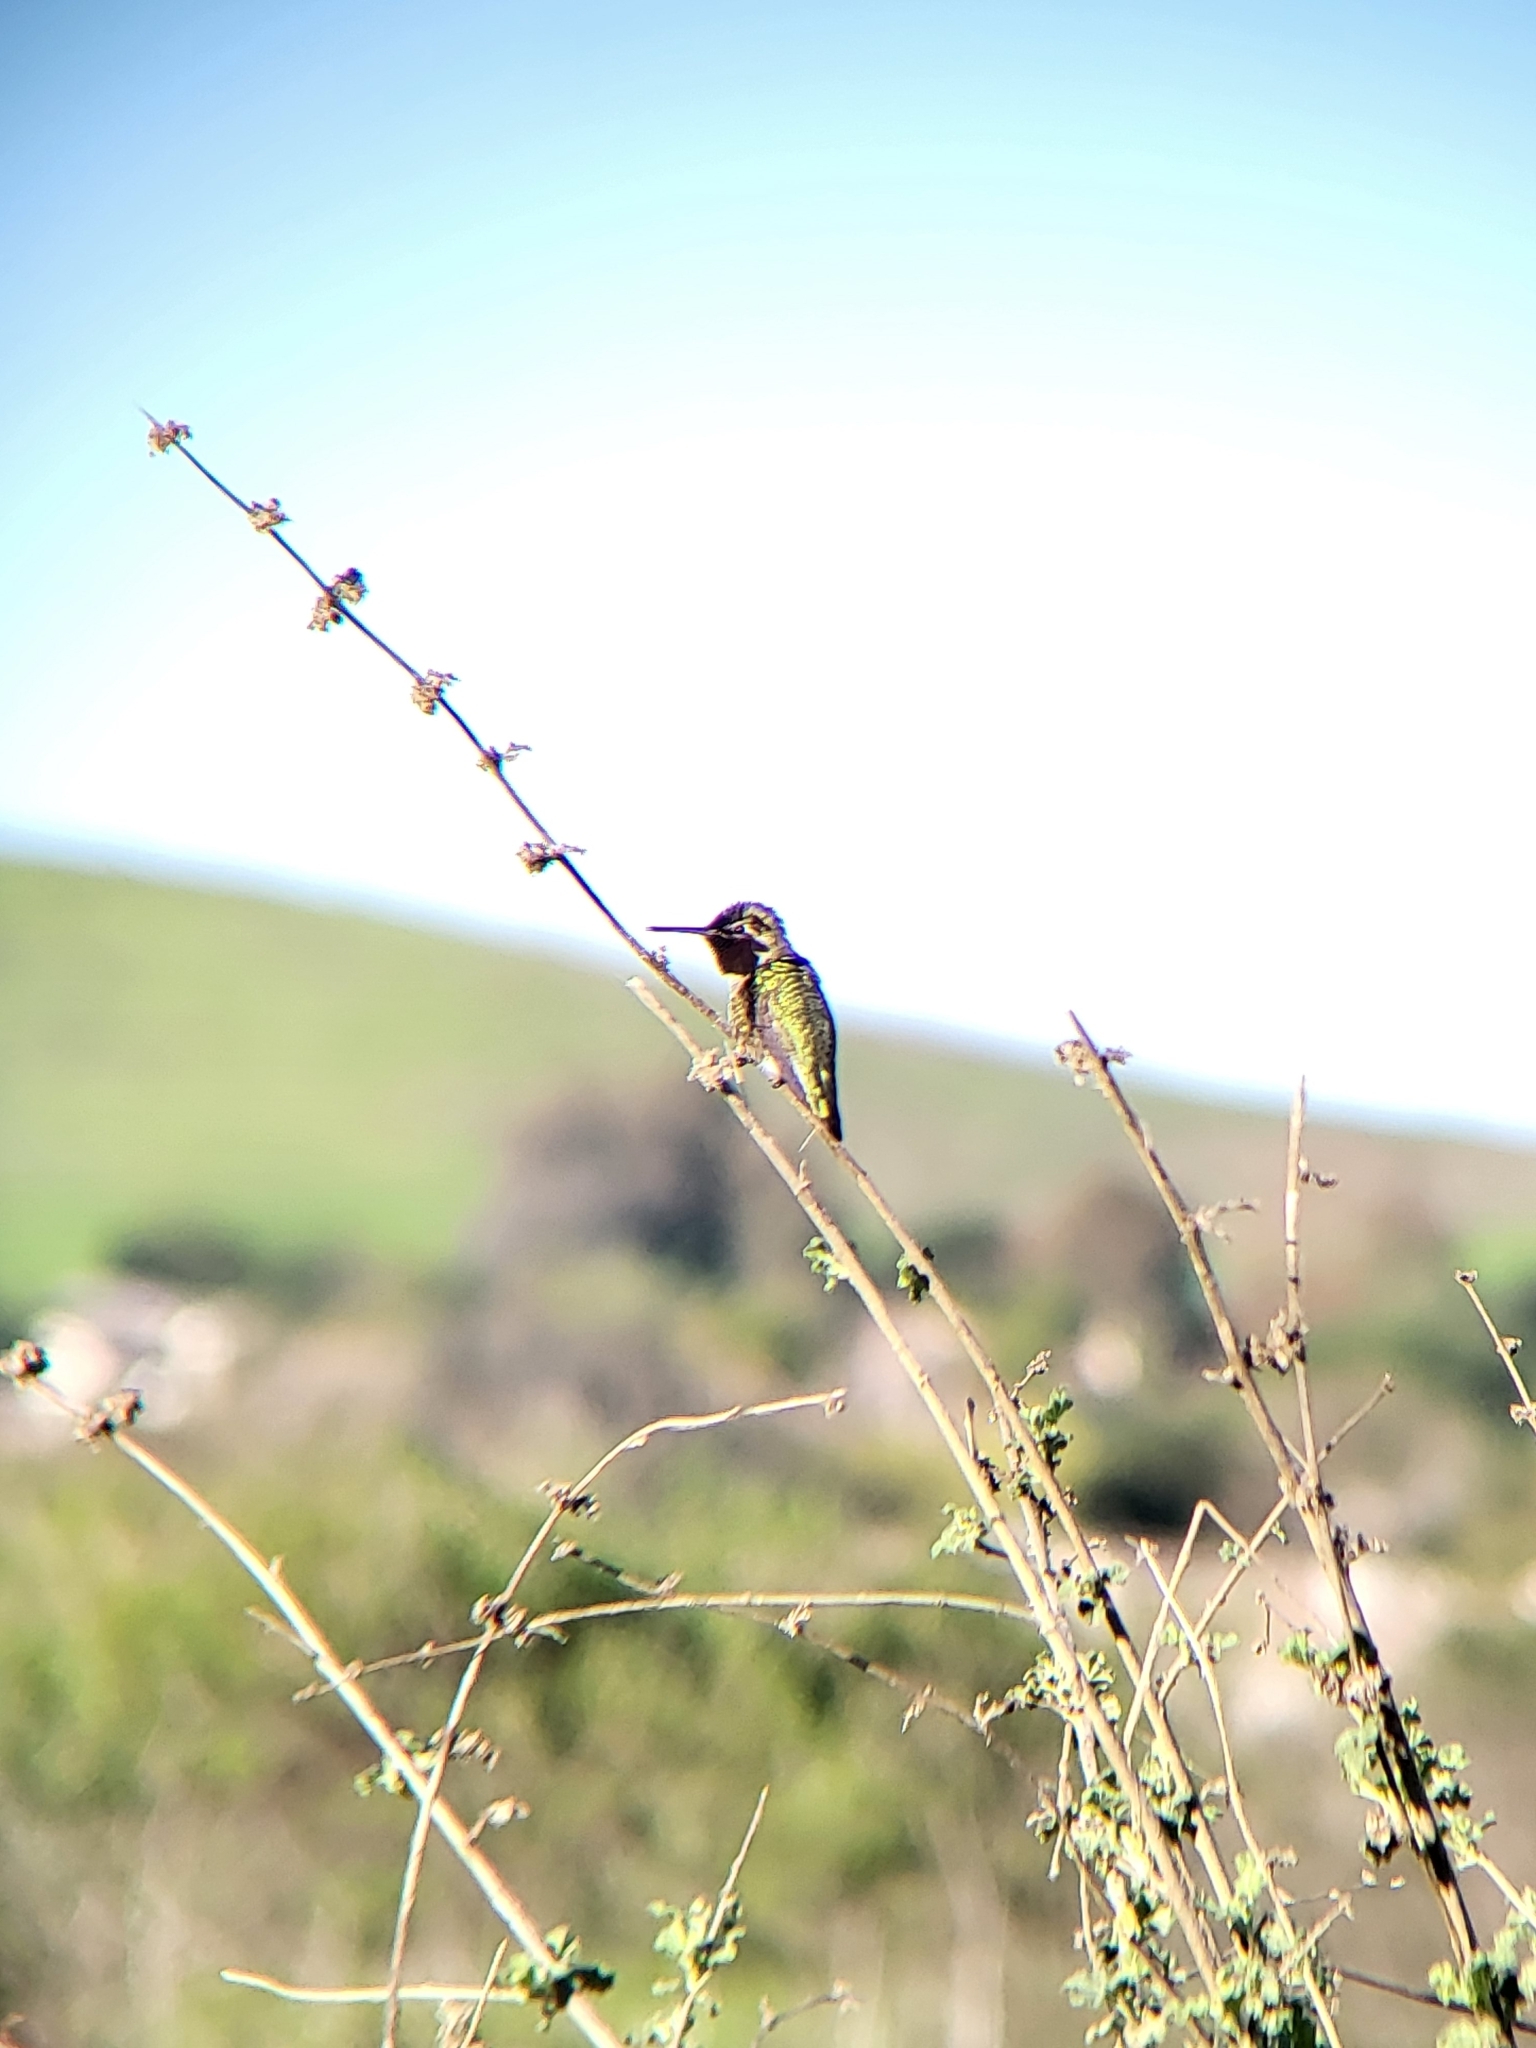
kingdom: Animalia
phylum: Chordata
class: Aves
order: Apodiformes
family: Trochilidae
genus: Calypte
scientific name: Calypte anna
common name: Anna's hummingbird
